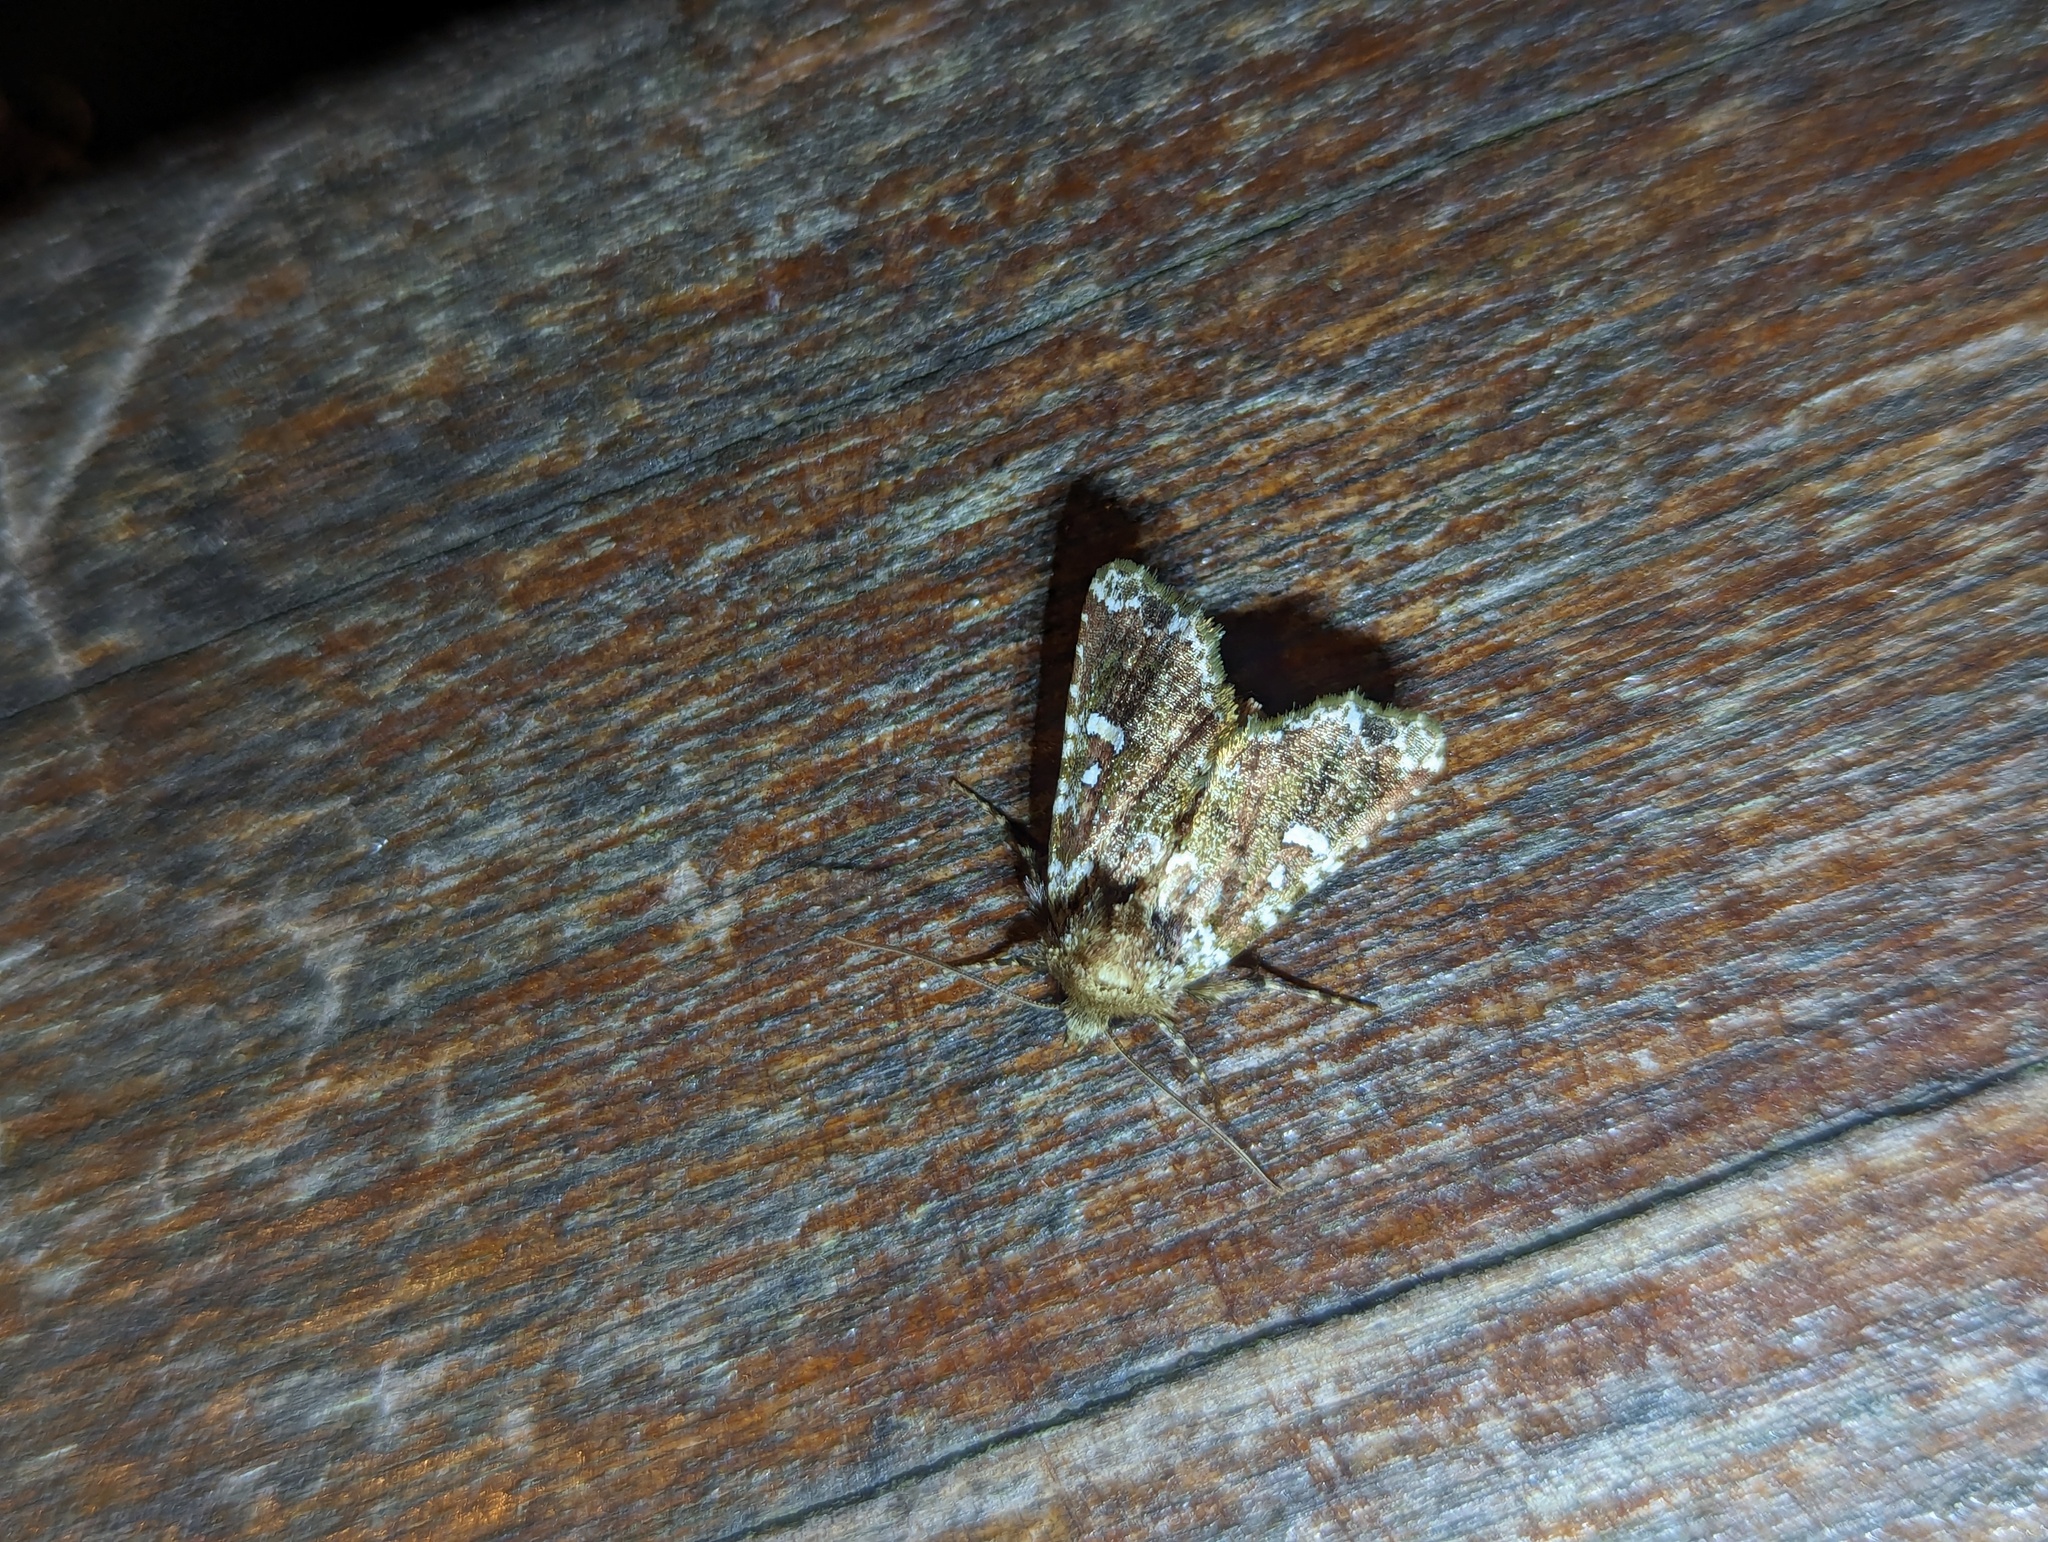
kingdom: Animalia
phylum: Arthropoda
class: Insecta
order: Lepidoptera
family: Noctuidae
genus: Chabuata
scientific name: Chabuata
